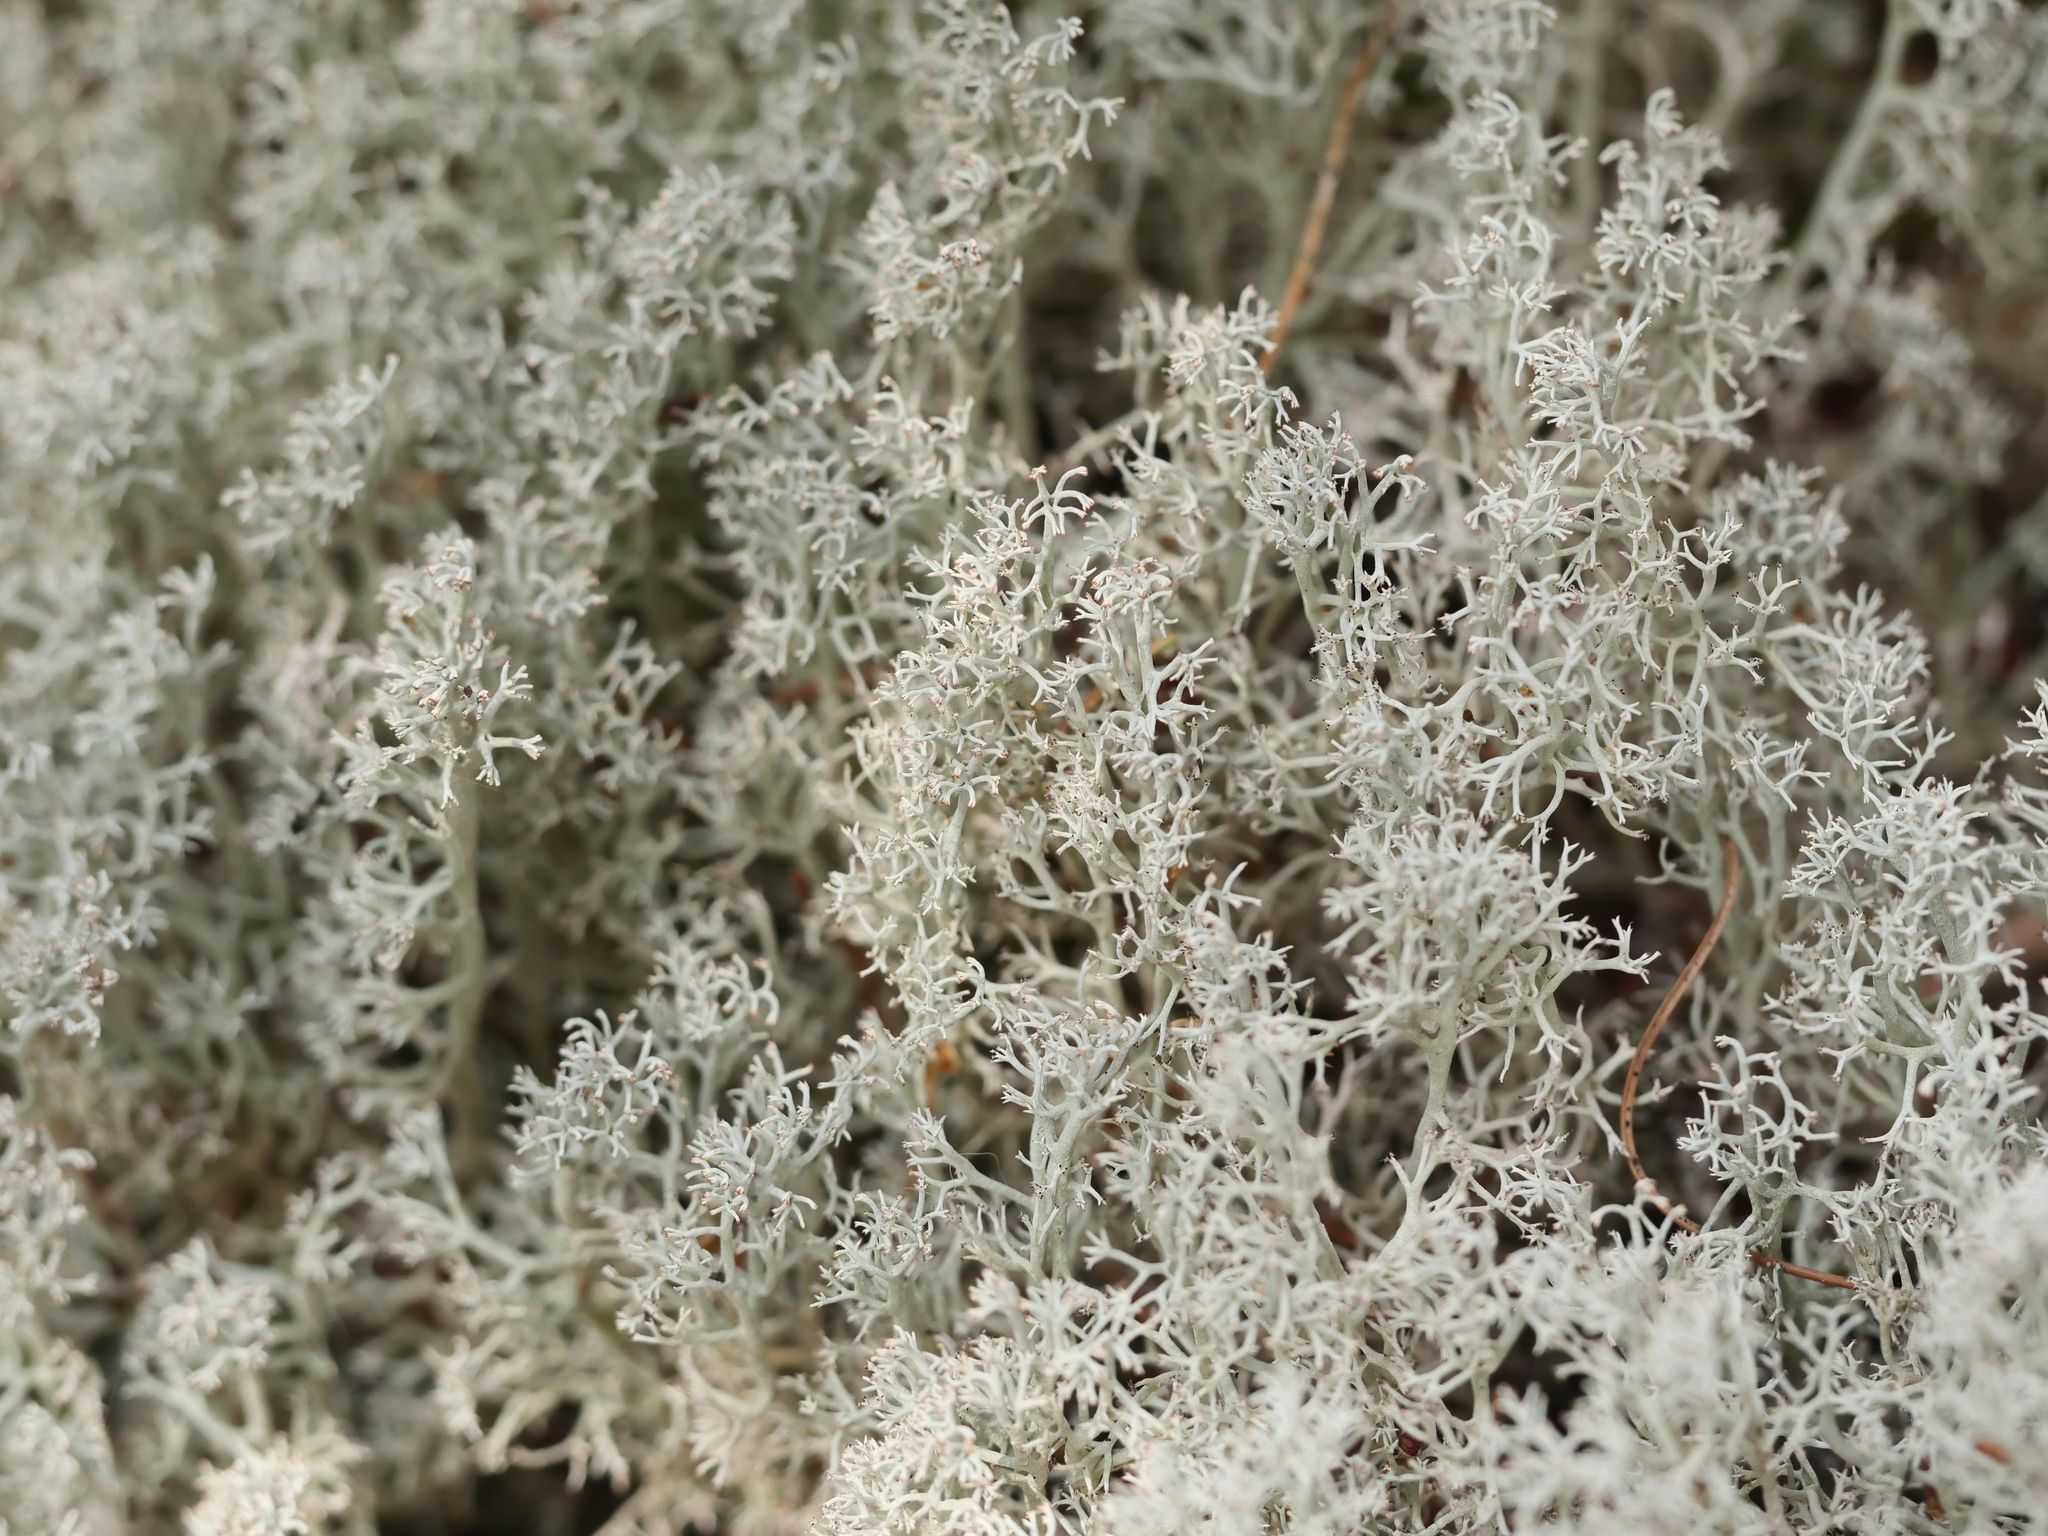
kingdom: Fungi
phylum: Ascomycota
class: Lecanoromycetes
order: Lecanorales
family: Cladoniaceae
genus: Cladonia
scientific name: Cladonia rangiferina
